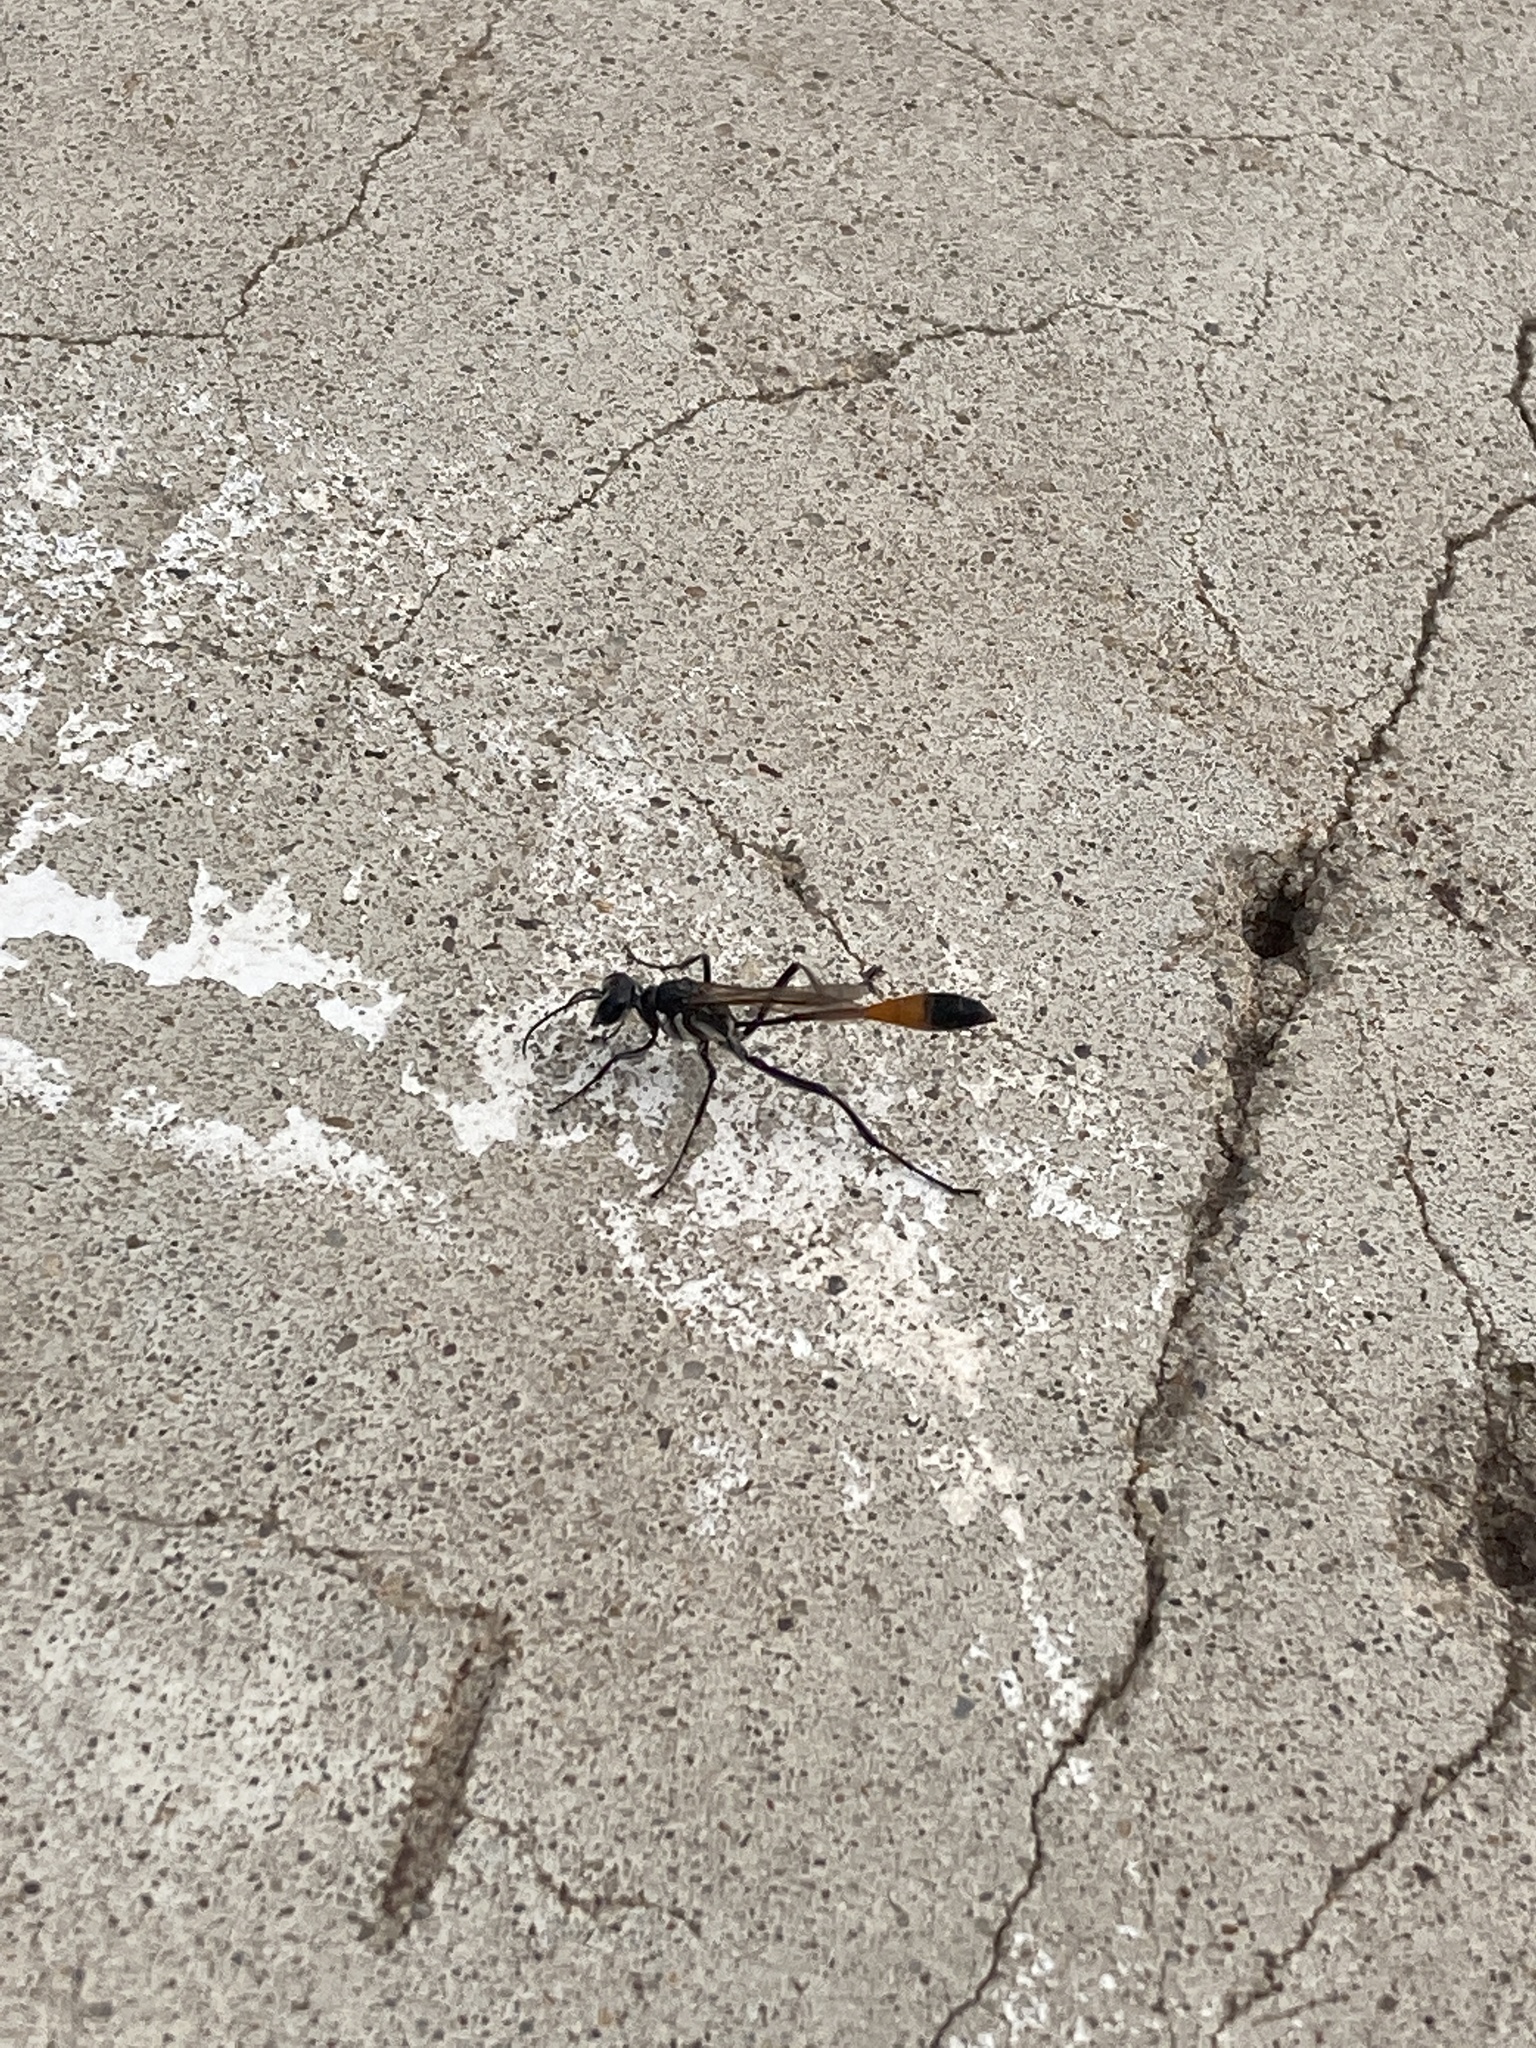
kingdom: Animalia
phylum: Arthropoda
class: Insecta
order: Hymenoptera
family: Sphecidae
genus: Ammophila
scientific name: Ammophila procera
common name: Common thread-waisted wasp
